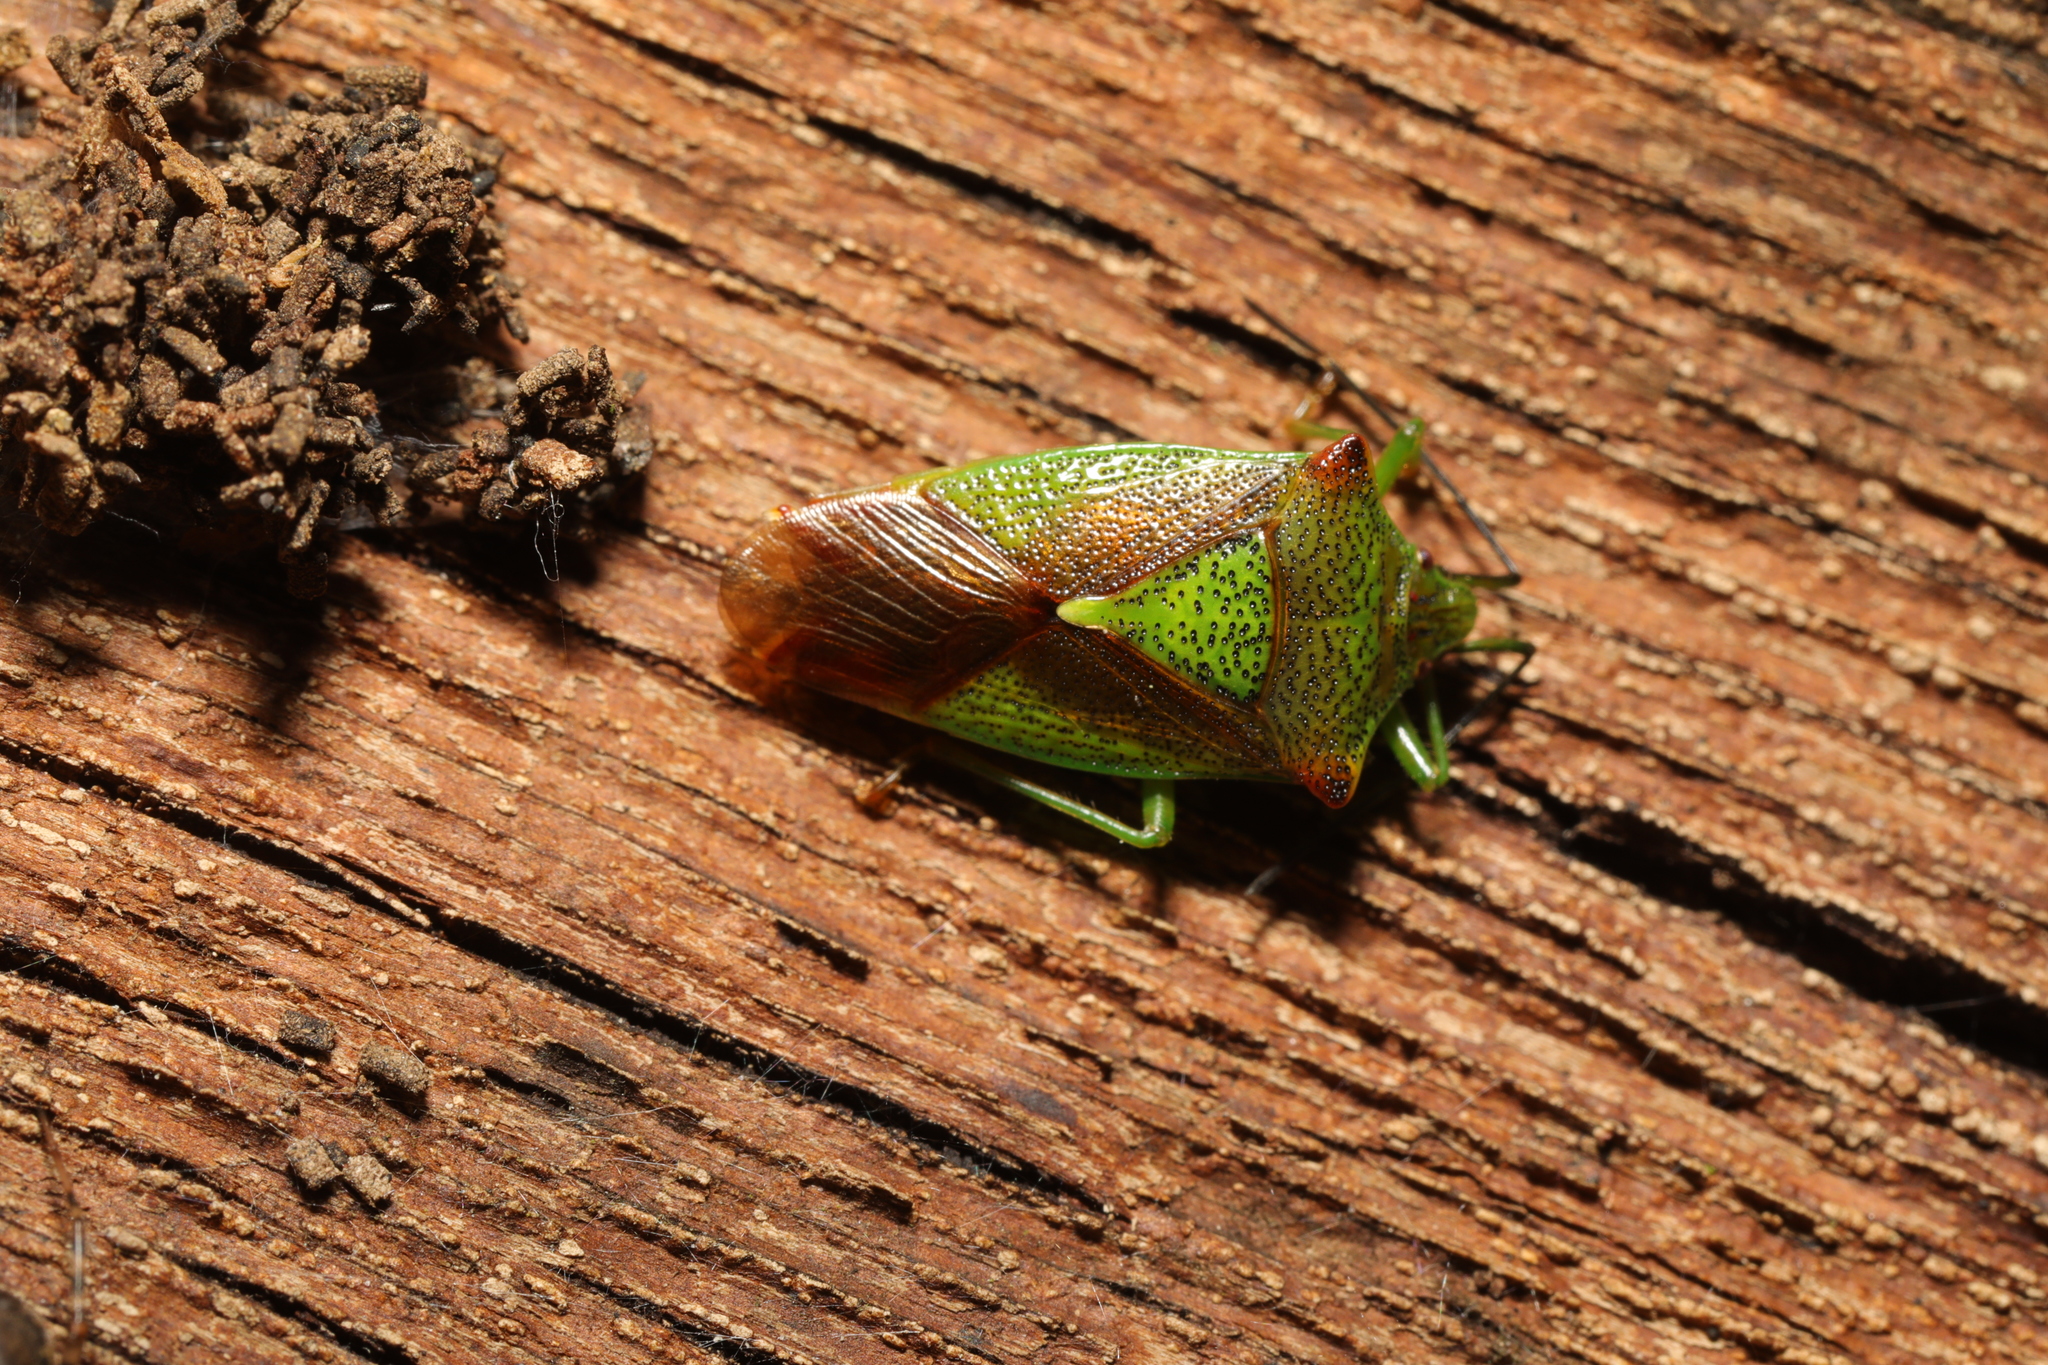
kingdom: Animalia
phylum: Arthropoda
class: Insecta
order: Hemiptera
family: Acanthosomatidae
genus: Acanthosoma
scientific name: Acanthosoma haemorrhoidale
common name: Hawthorn shieldbug
